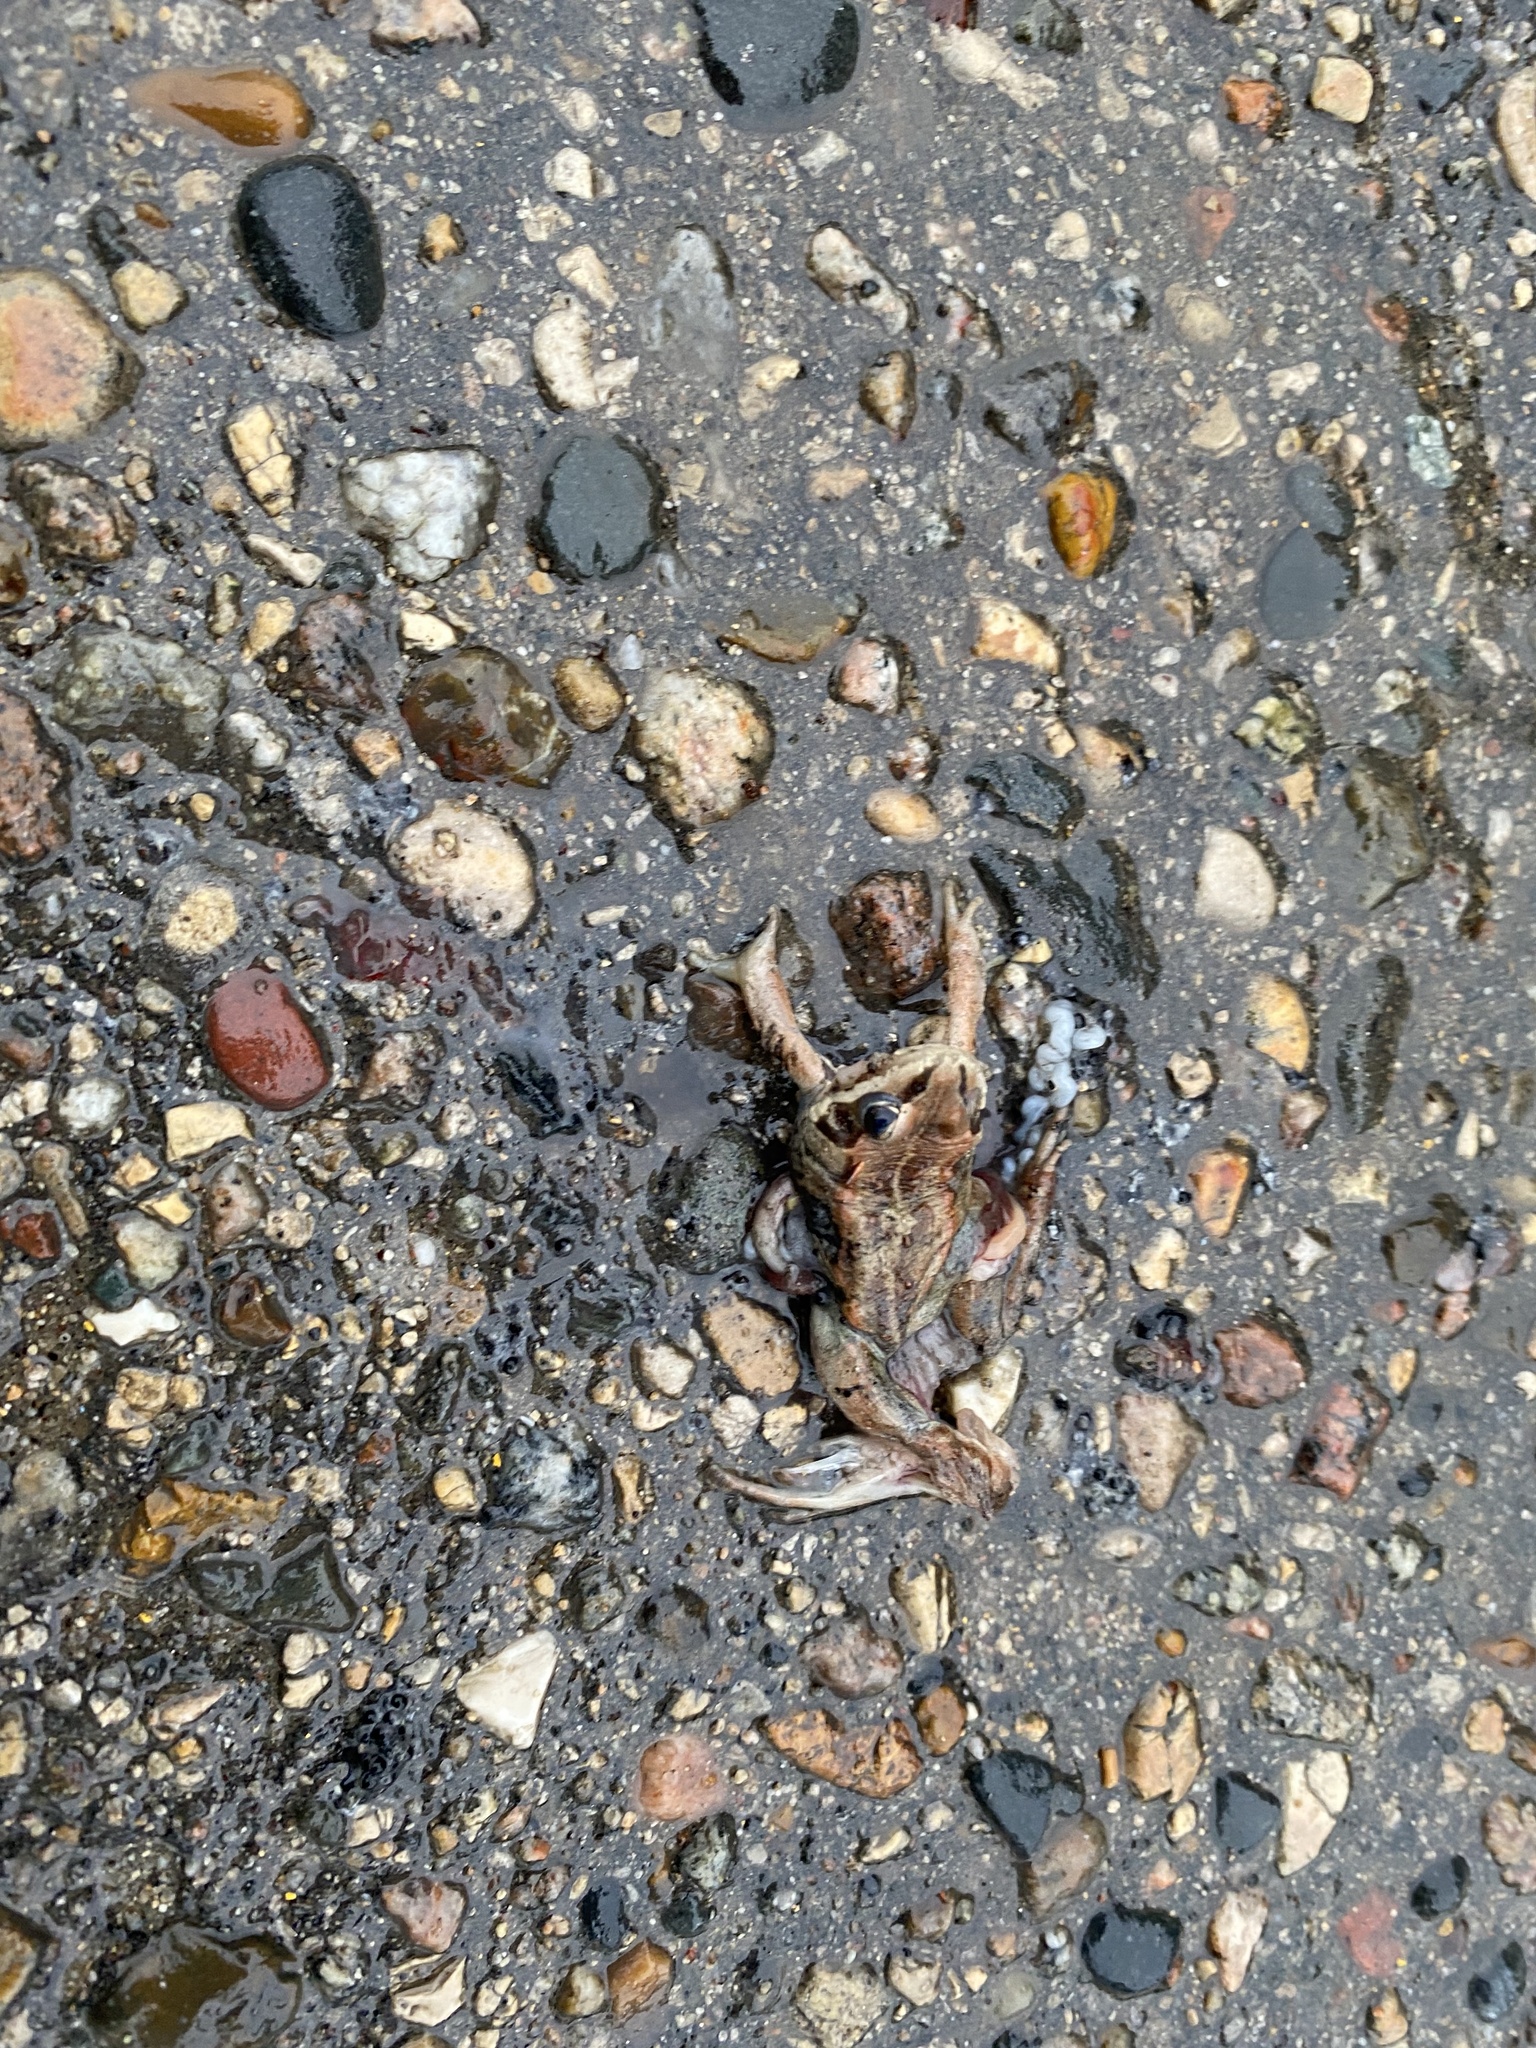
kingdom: Animalia
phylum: Chordata
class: Amphibia
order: Anura
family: Ranidae
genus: Lithobates
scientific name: Lithobates sylvaticus
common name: Wood frog
